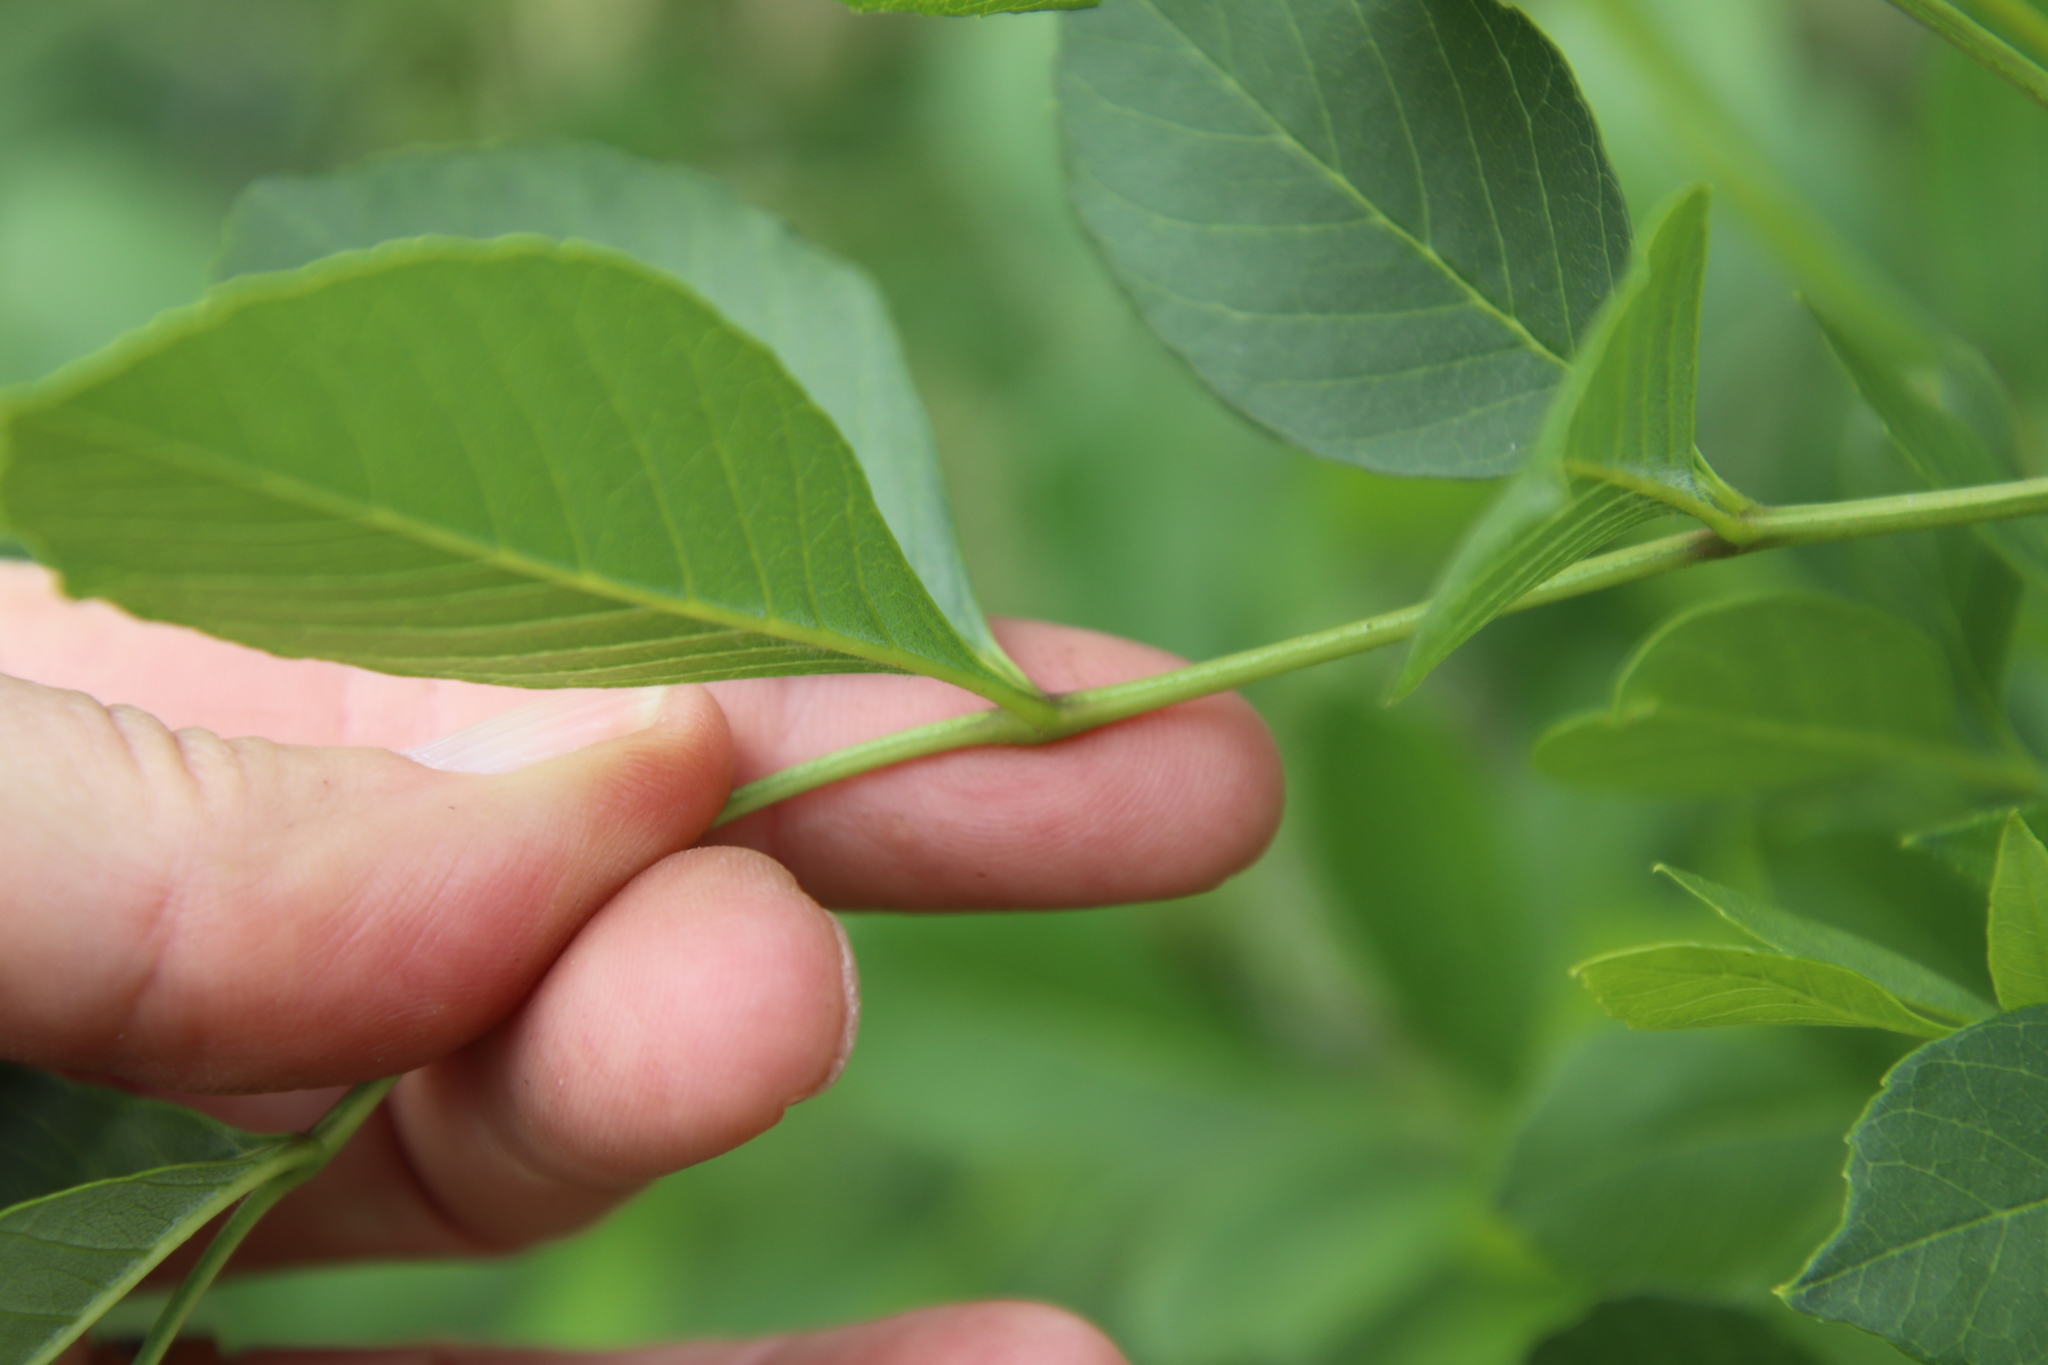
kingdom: Plantae
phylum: Tracheophyta
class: Magnoliopsida
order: Lamiales
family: Oleaceae
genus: Fraxinus
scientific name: Fraxinus latifolia
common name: Oregon ash
